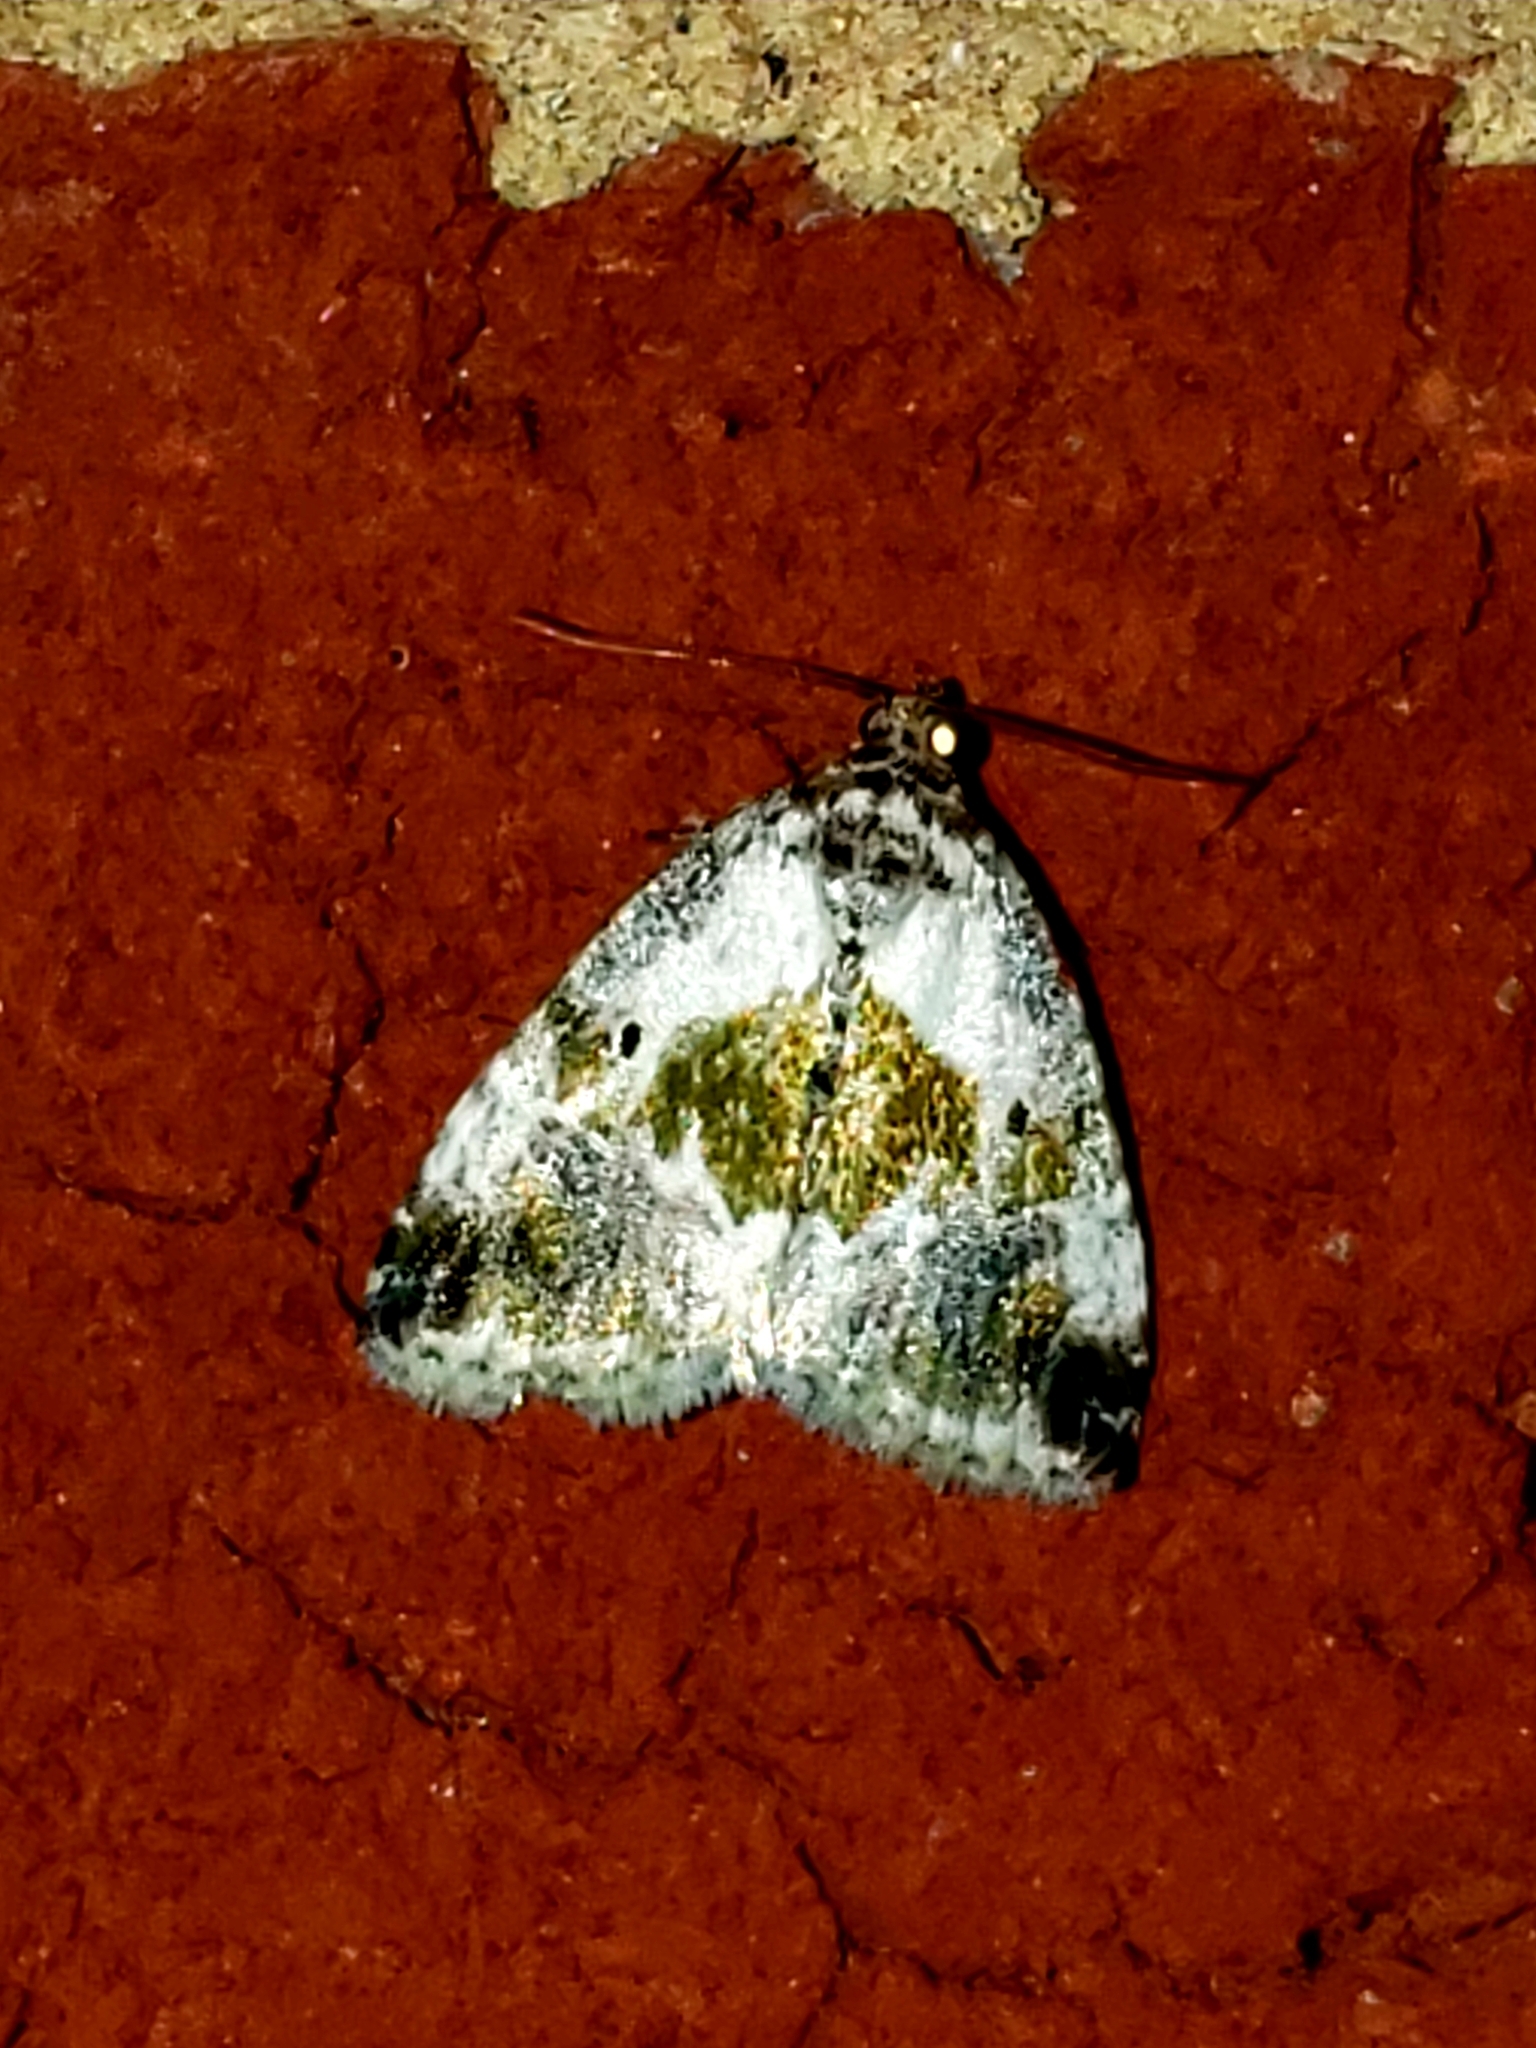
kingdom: Animalia
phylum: Arthropoda
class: Insecta
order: Lepidoptera
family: Noctuidae
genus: Maliattha
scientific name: Maliattha synochitis
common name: Black-dotted glyph
